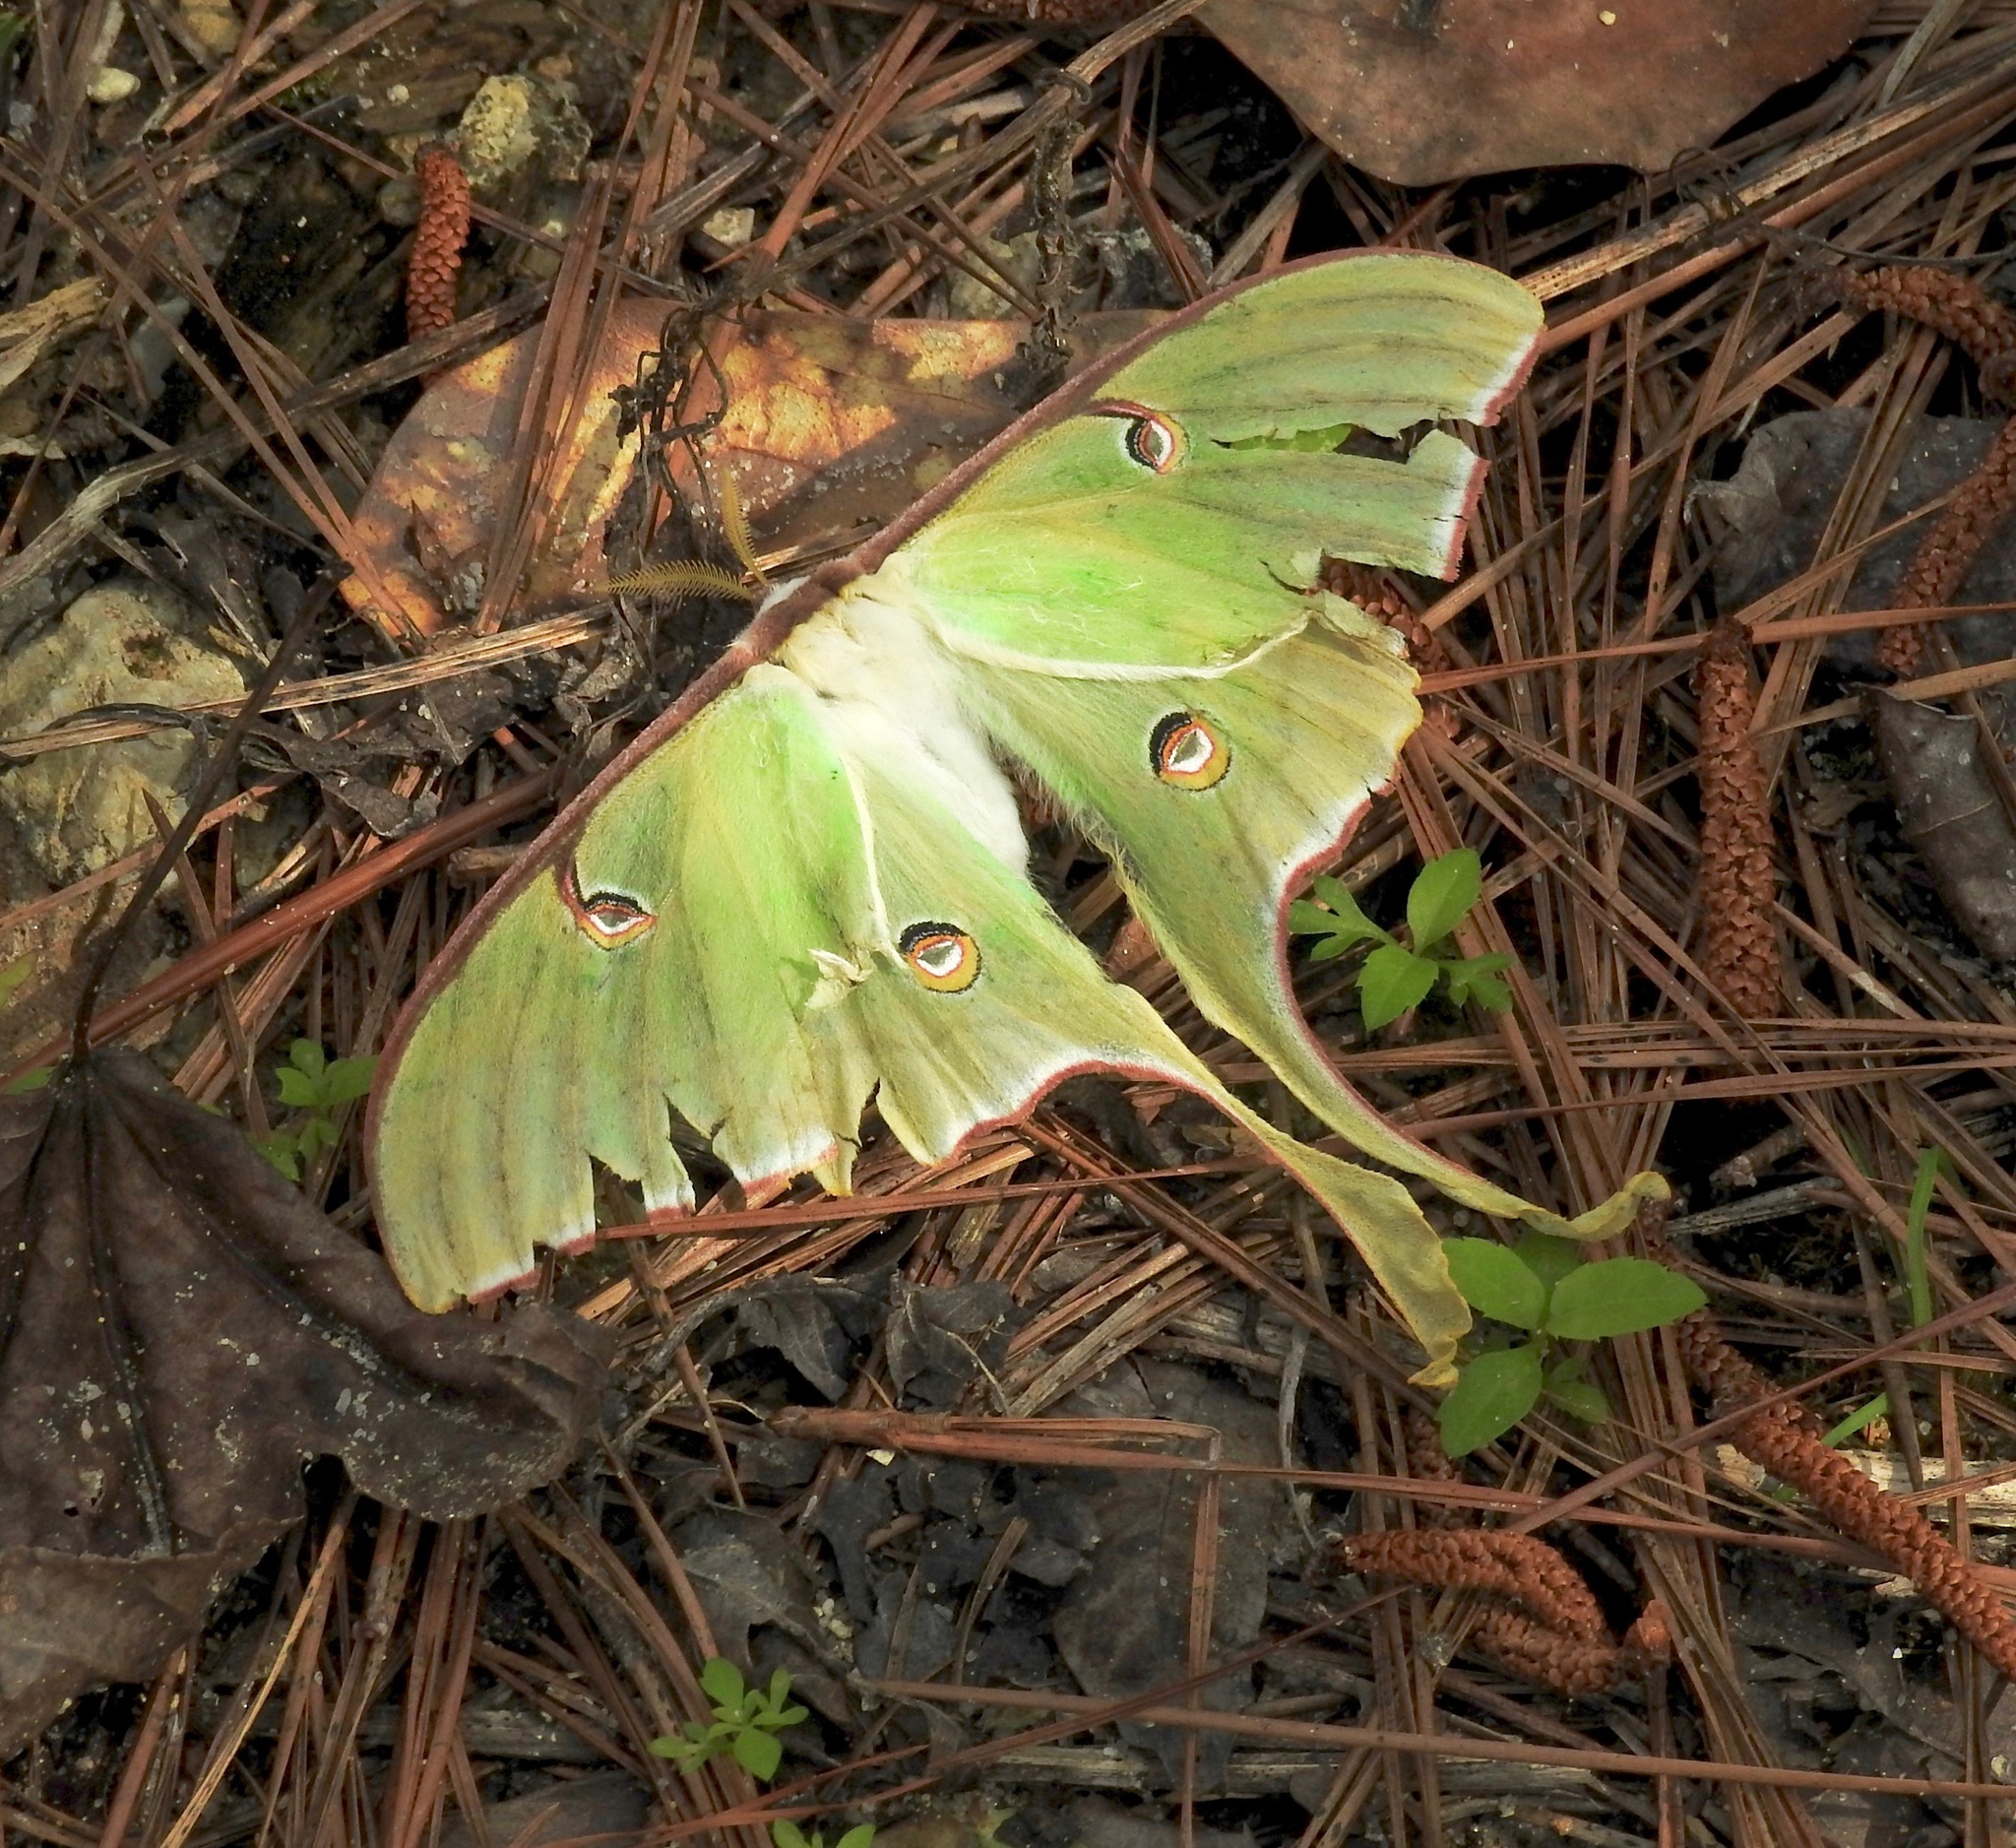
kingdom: Animalia
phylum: Arthropoda
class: Insecta
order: Lepidoptera
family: Saturniidae
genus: Actias
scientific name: Actias luna
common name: Luna moth
